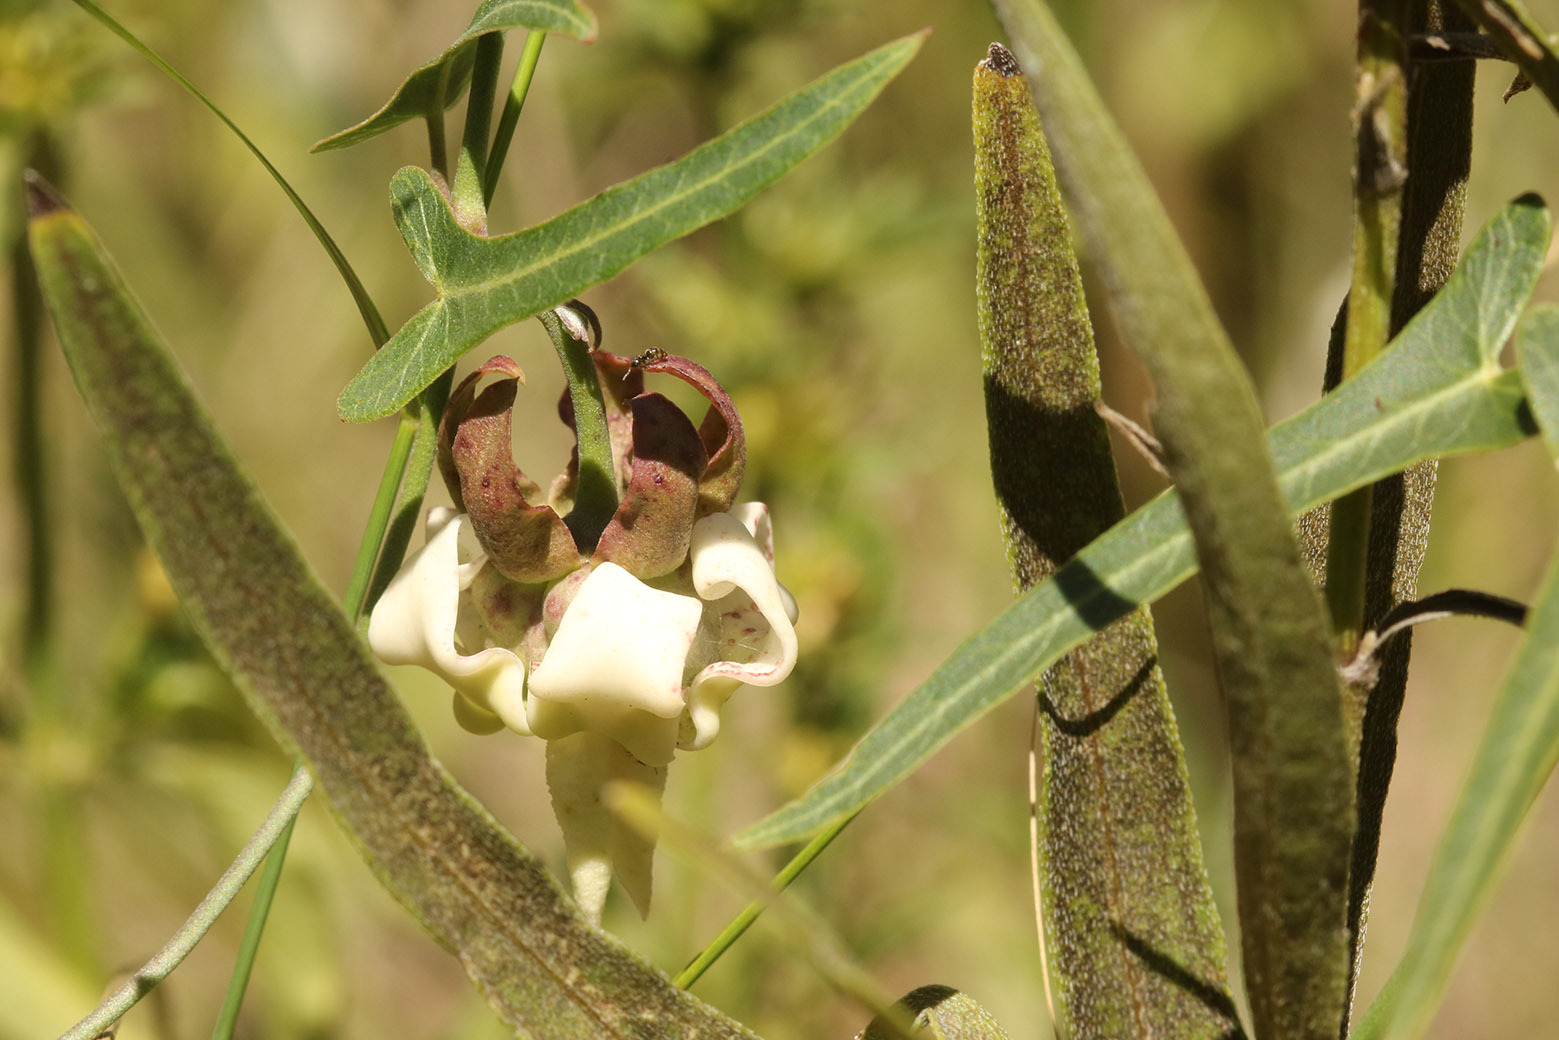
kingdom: Plantae
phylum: Tracheophyta
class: Magnoliopsida
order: Gentianales
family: Apocynaceae
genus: Araujia
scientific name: Araujia angustifolia
